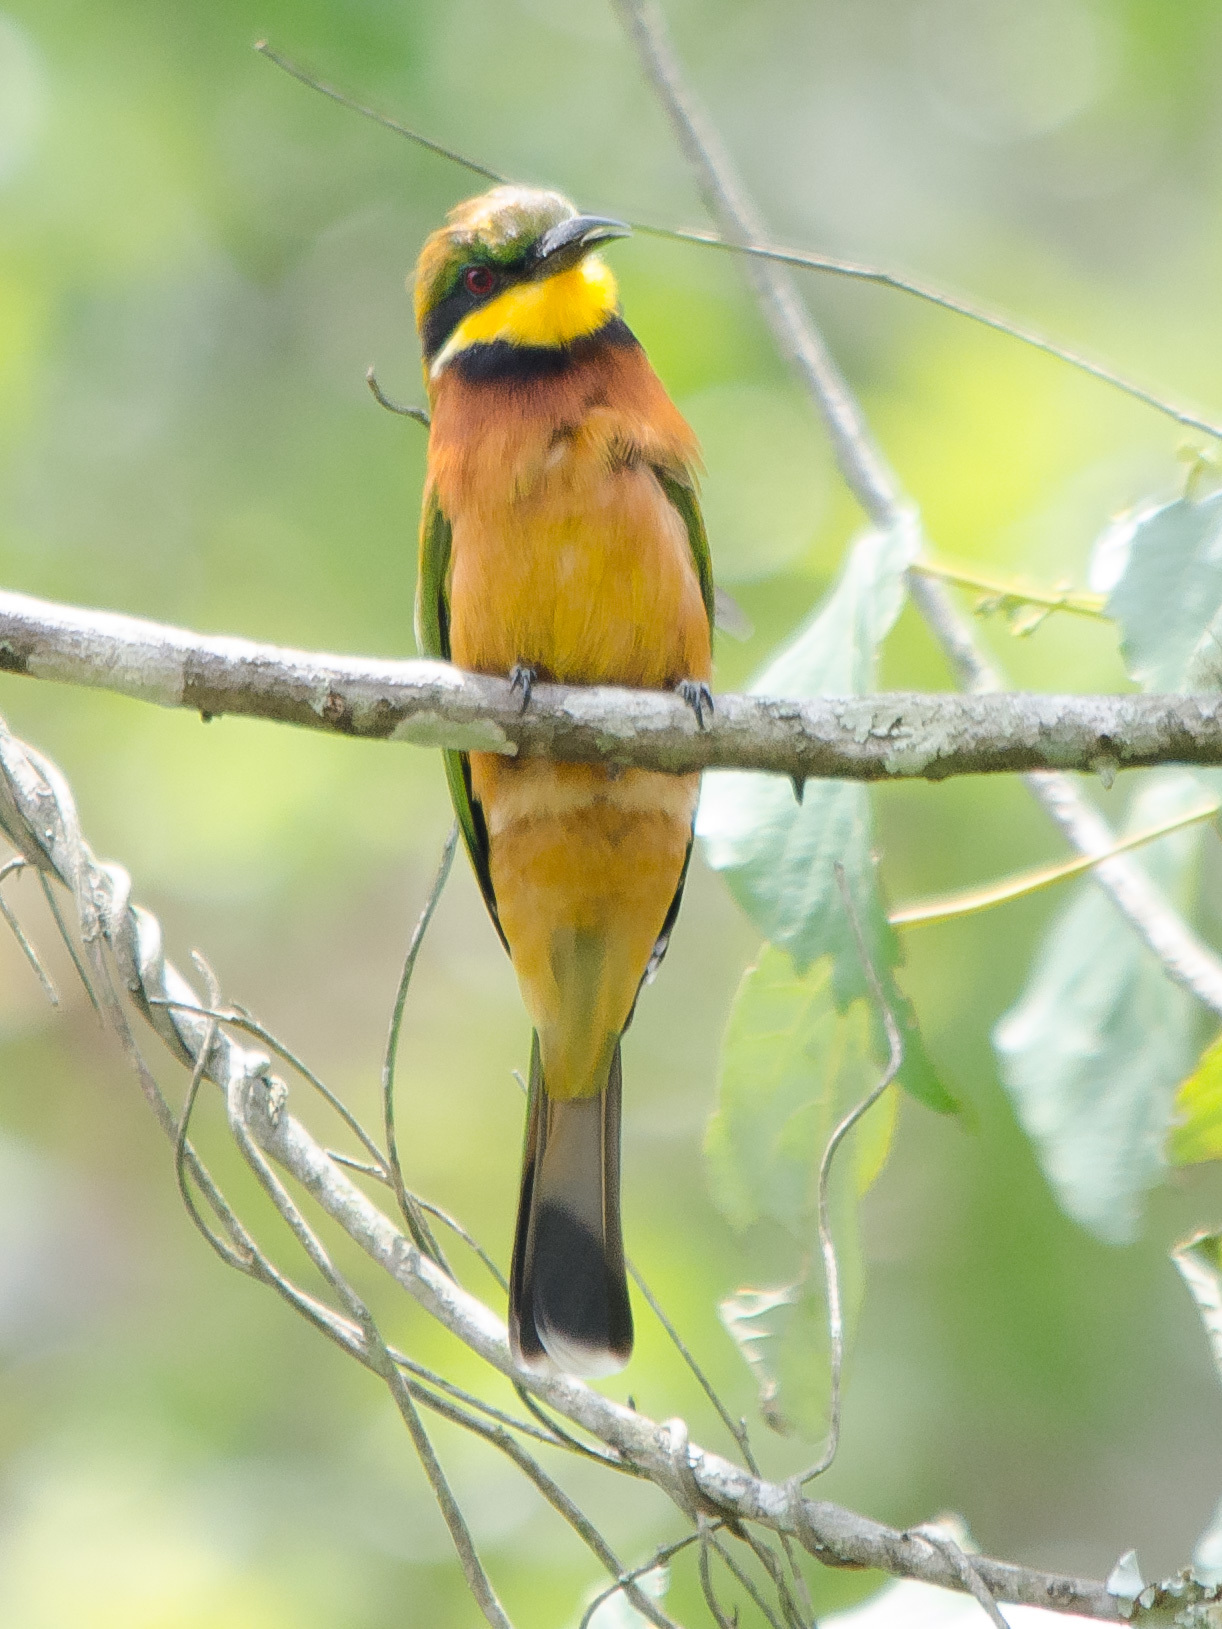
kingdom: Animalia
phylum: Chordata
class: Aves
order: Coraciiformes
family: Meropidae
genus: Merops
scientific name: Merops oreobates
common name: Cinnamon-chested bee-eater
